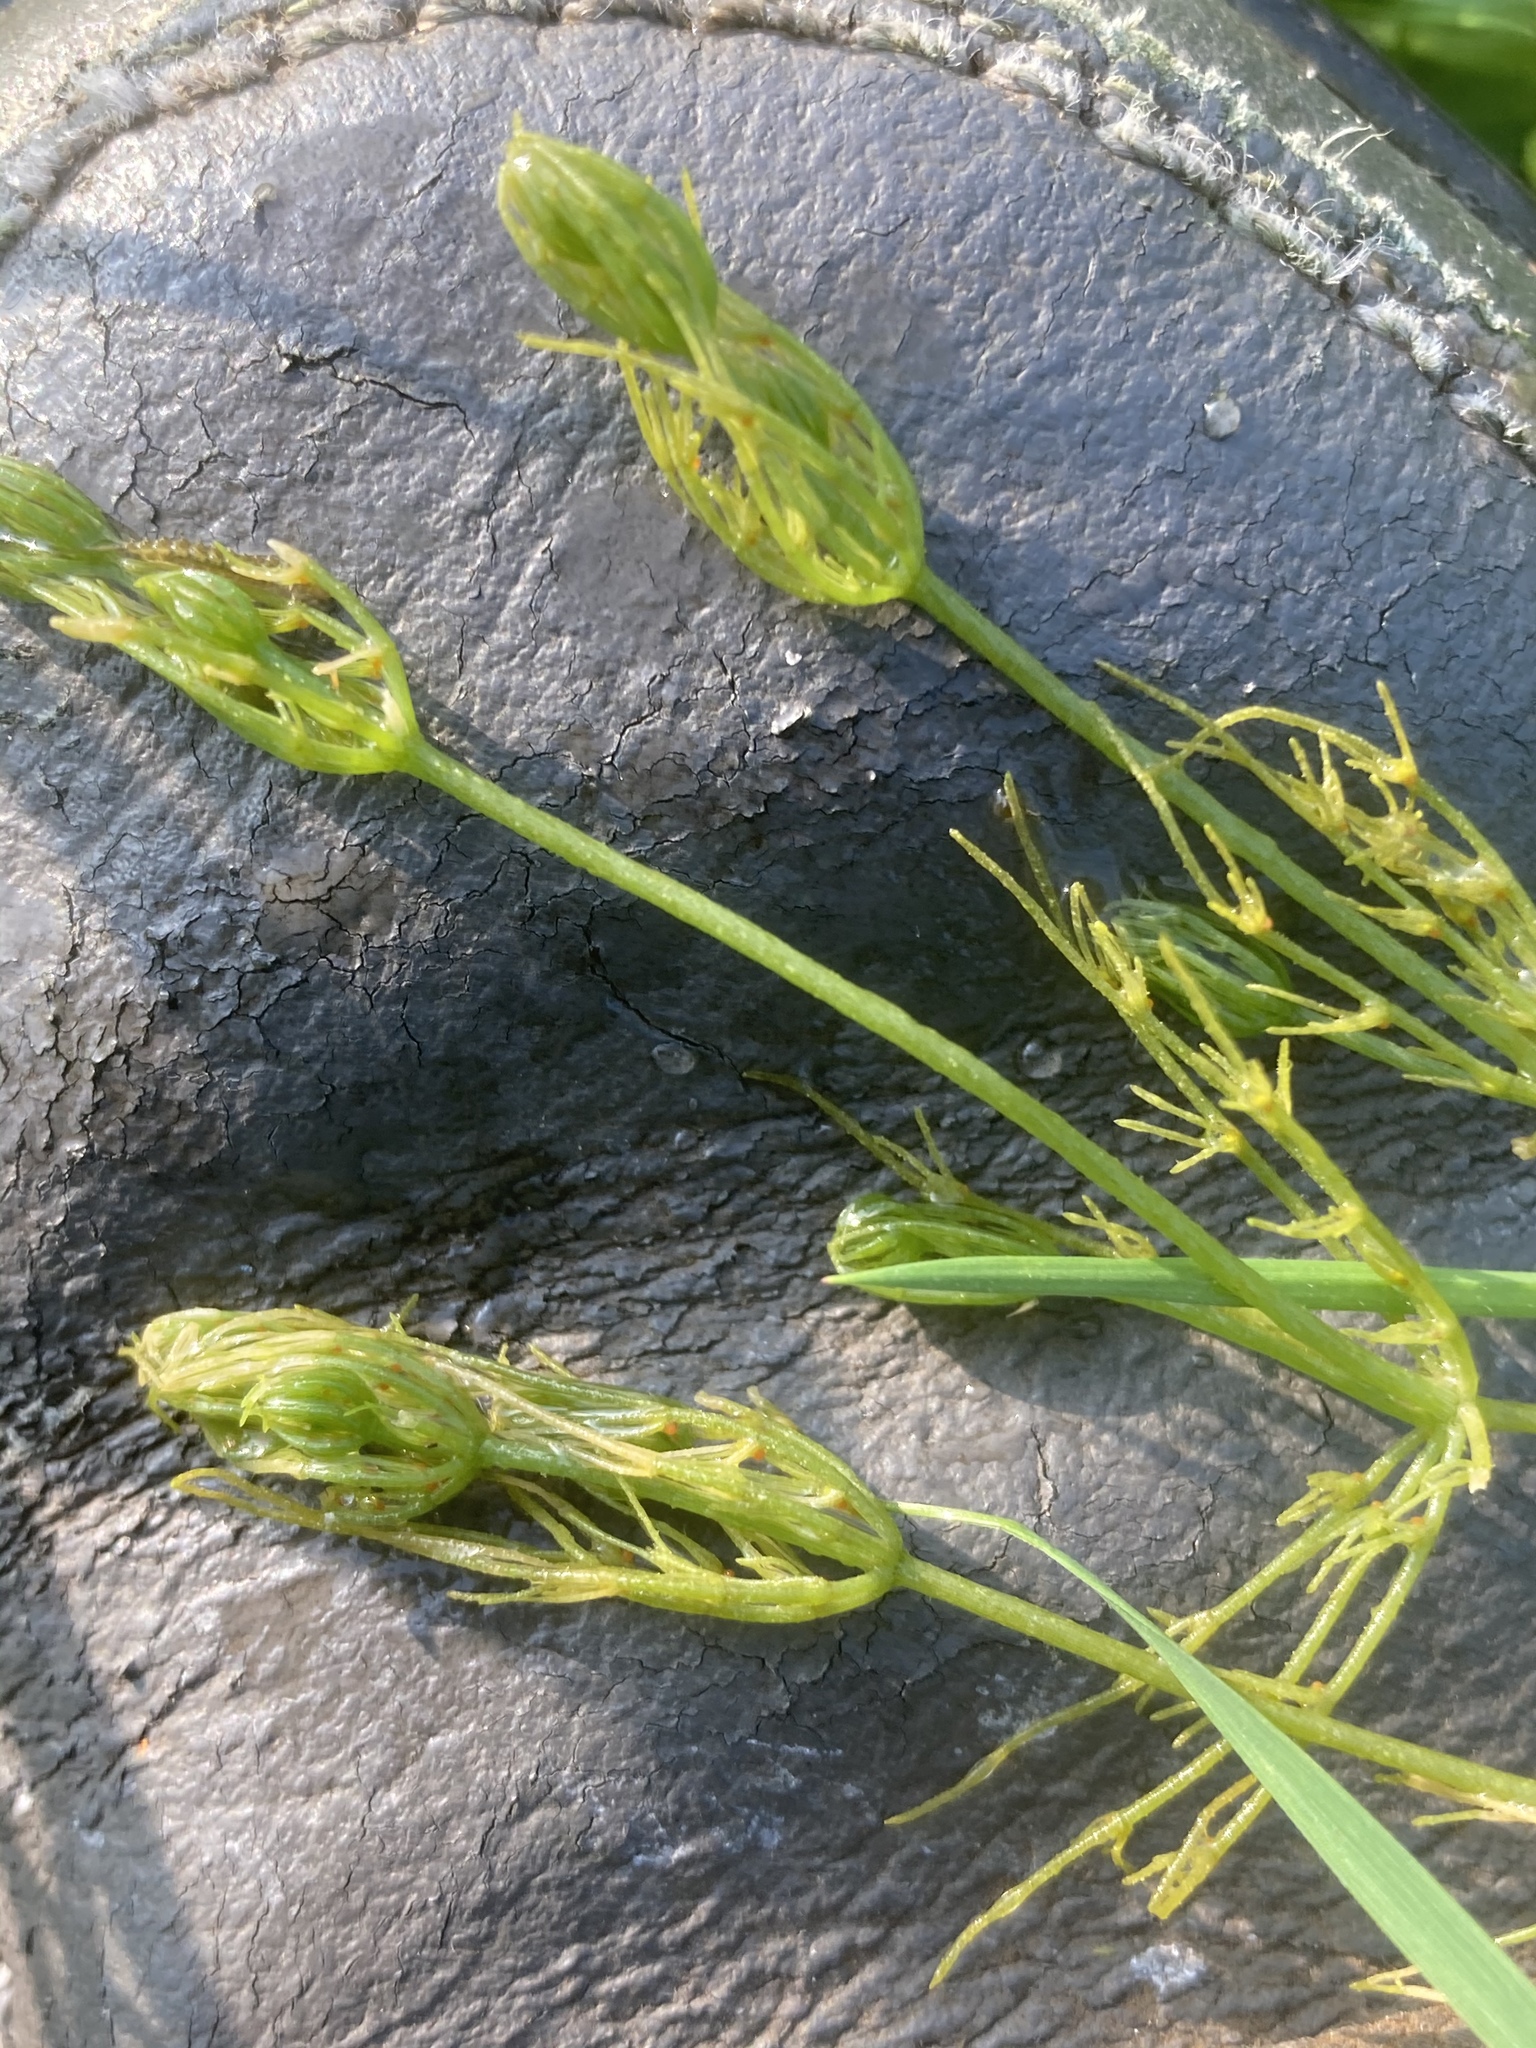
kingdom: Plantae
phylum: Charophyta
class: Charophyceae
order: Charales
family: Characeae
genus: Chara
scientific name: Chara vulgaris
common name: Common stonewort
